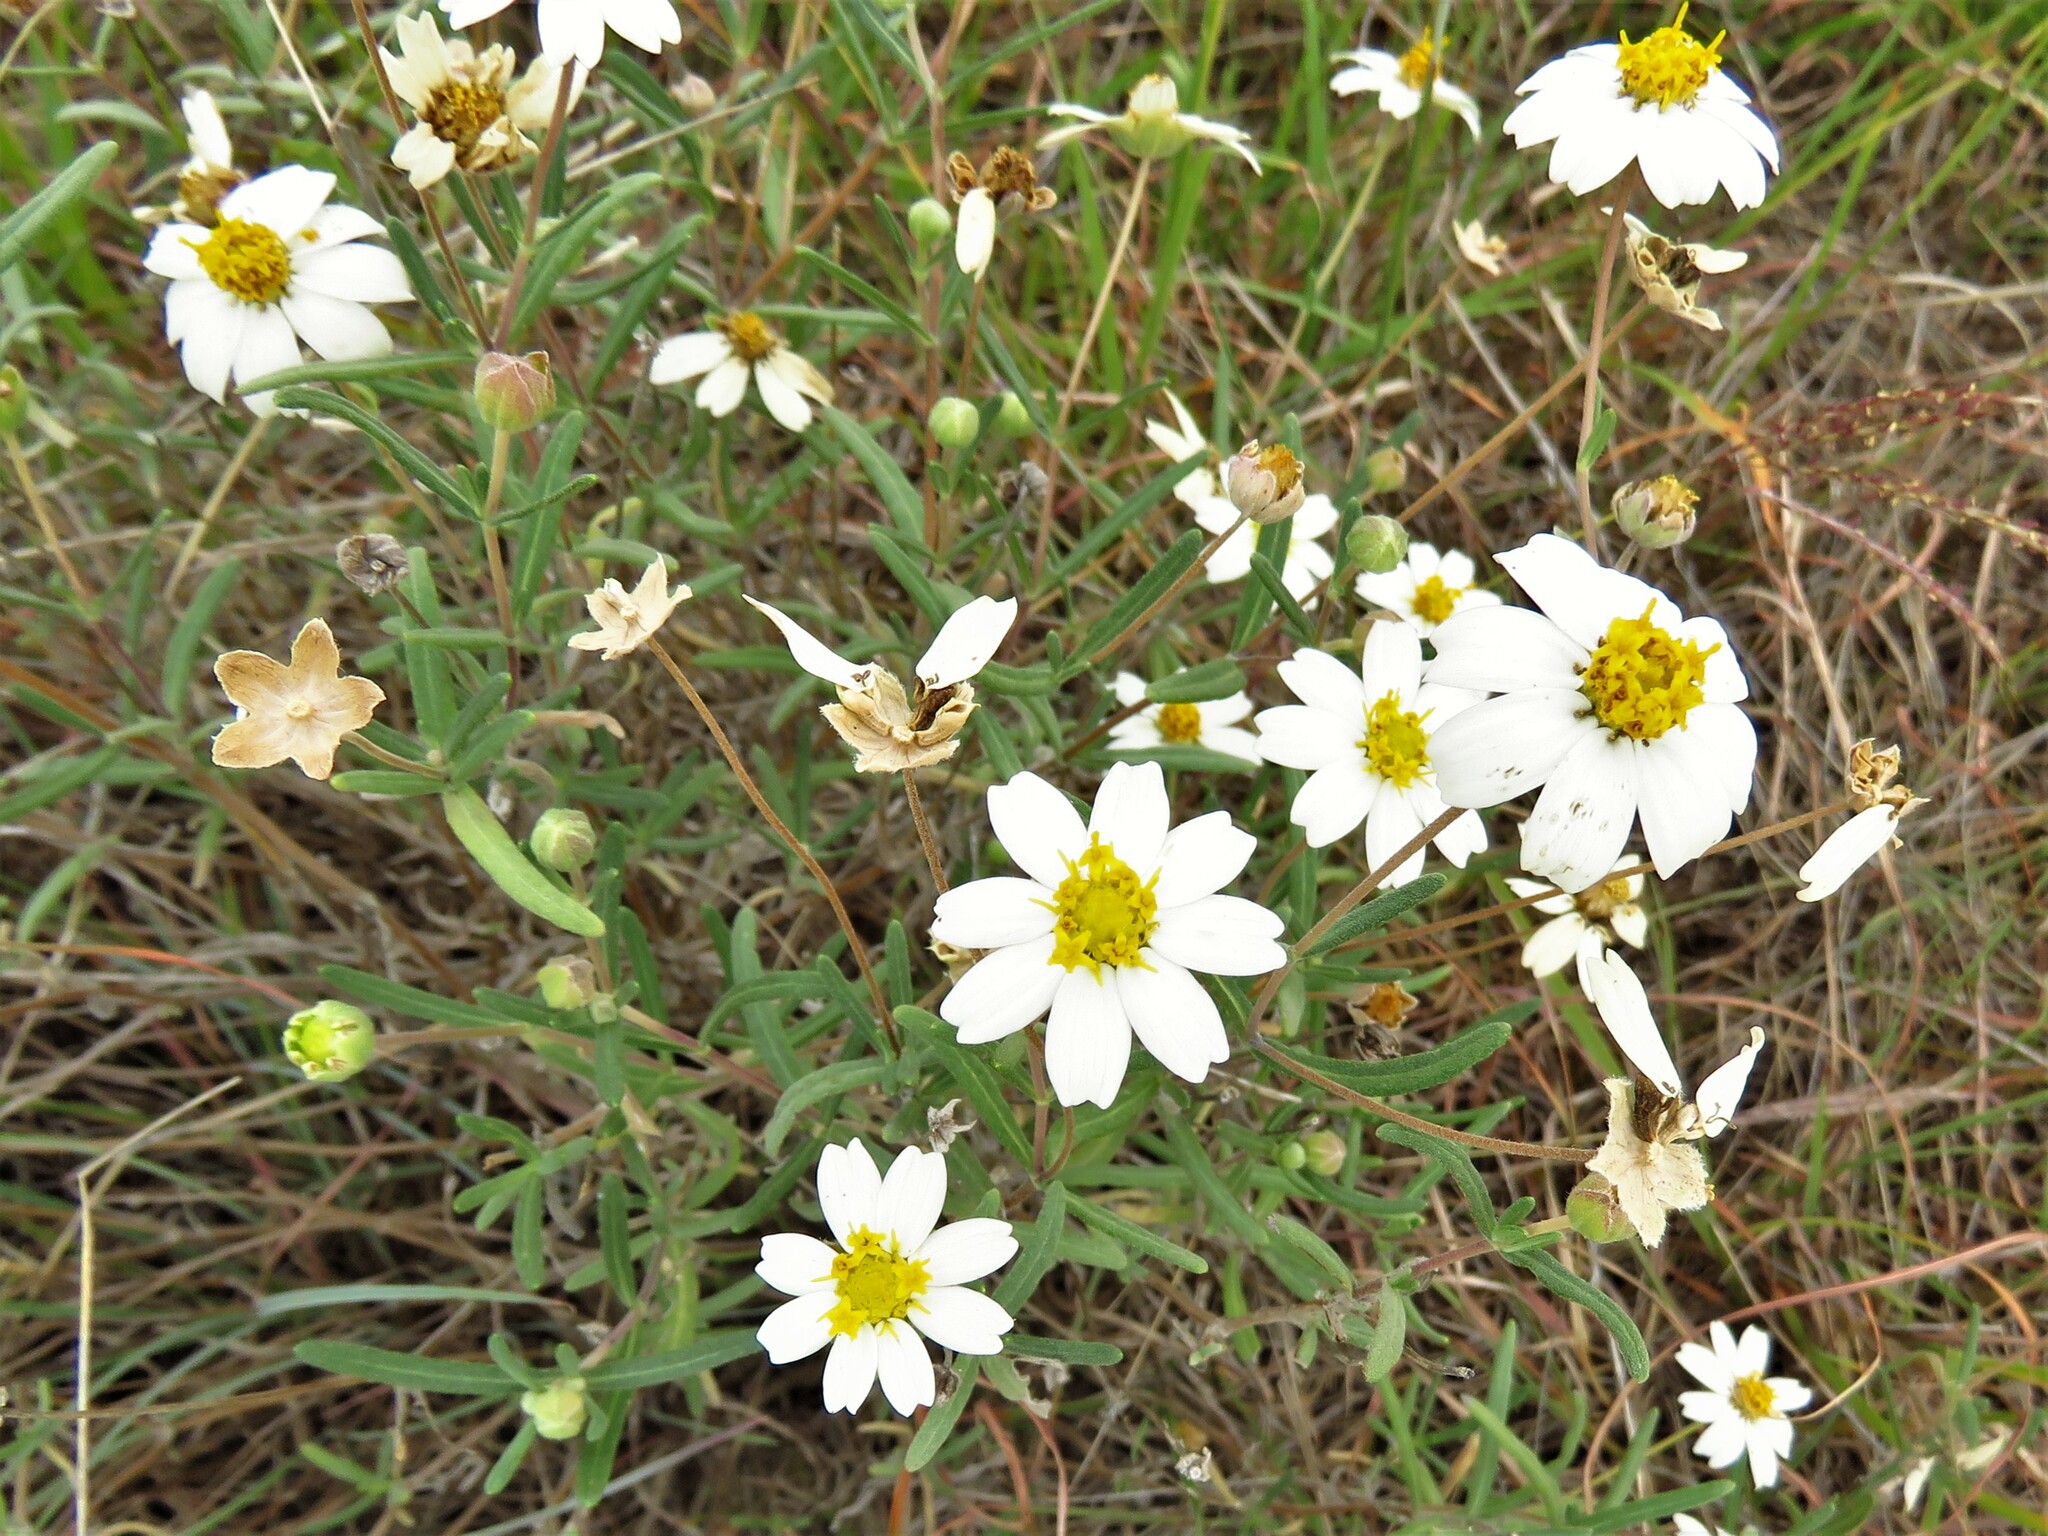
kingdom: Plantae
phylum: Tracheophyta
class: Magnoliopsida
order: Asterales
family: Asteraceae
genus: Melampodium
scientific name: Melampodium leucanthum
